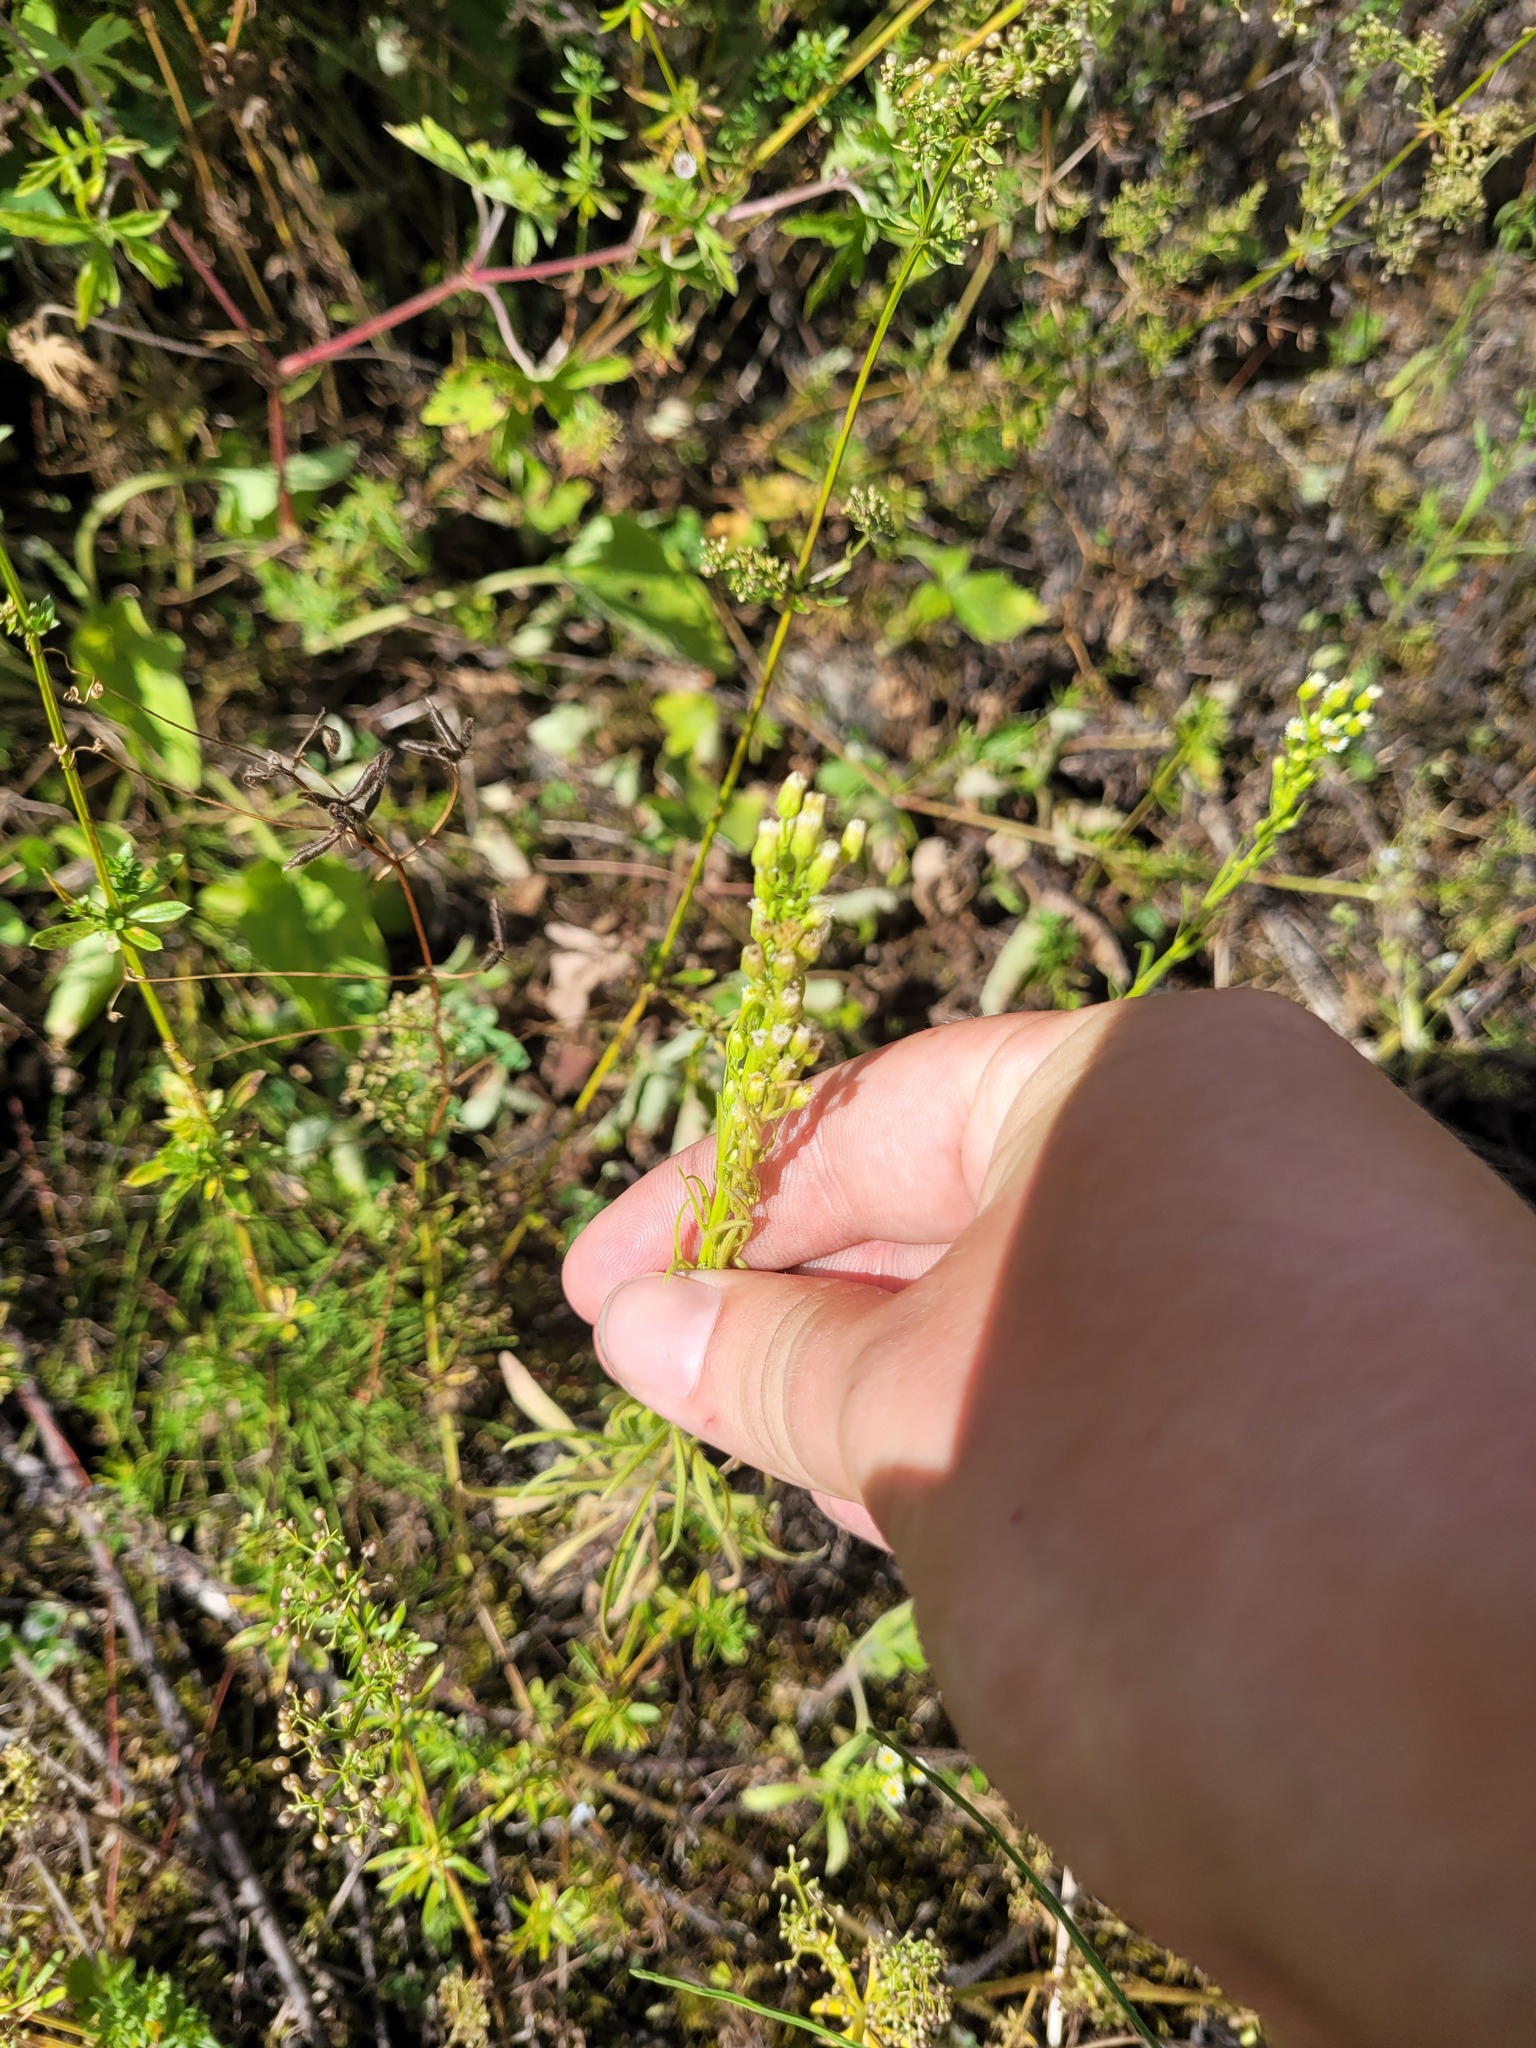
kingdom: Plantae
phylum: Tracheophyta
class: Magnoliopsida
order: Asterales
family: Asteraceae
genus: Erigeron
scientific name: Erigeron canadensis
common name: Canadian fleabane
